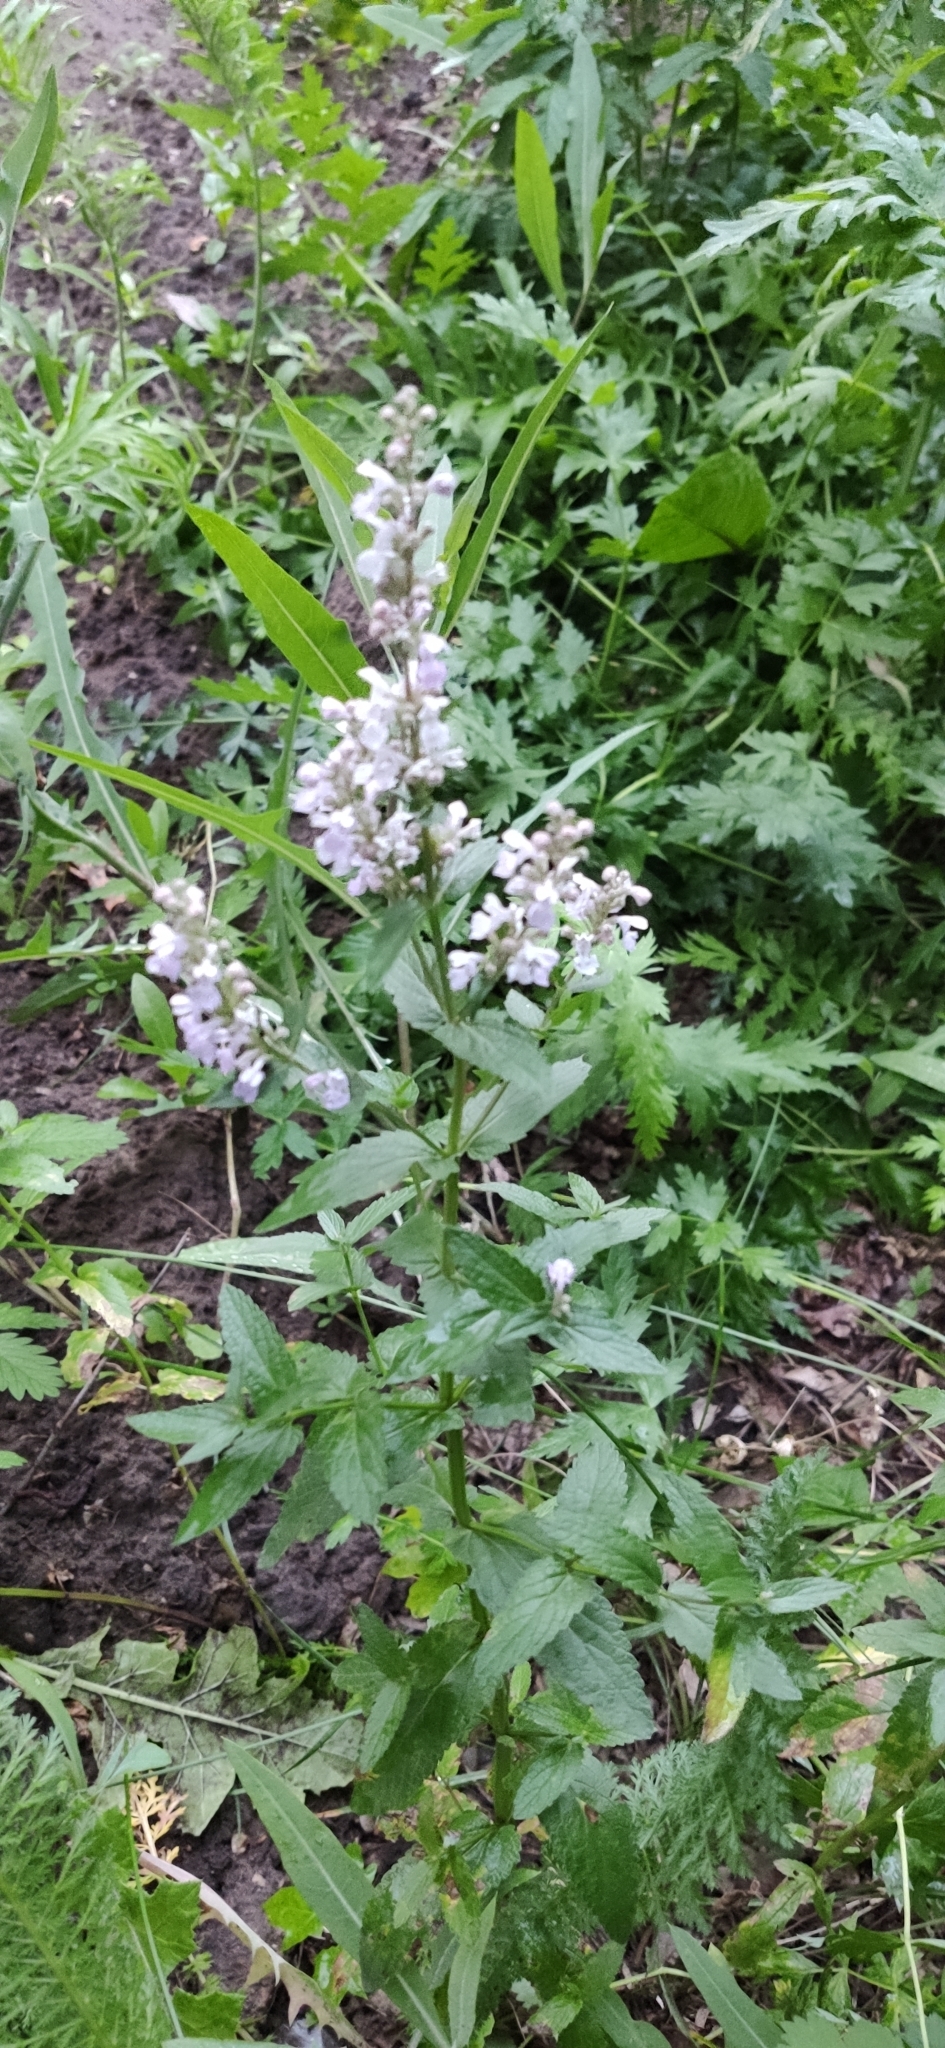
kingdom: Plantae
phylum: Tracheophyta
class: Magnoliopsida
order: Lamiales
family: Lamiaceae
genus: Nepeta
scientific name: Nepeta nuda
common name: Hairless catmint
